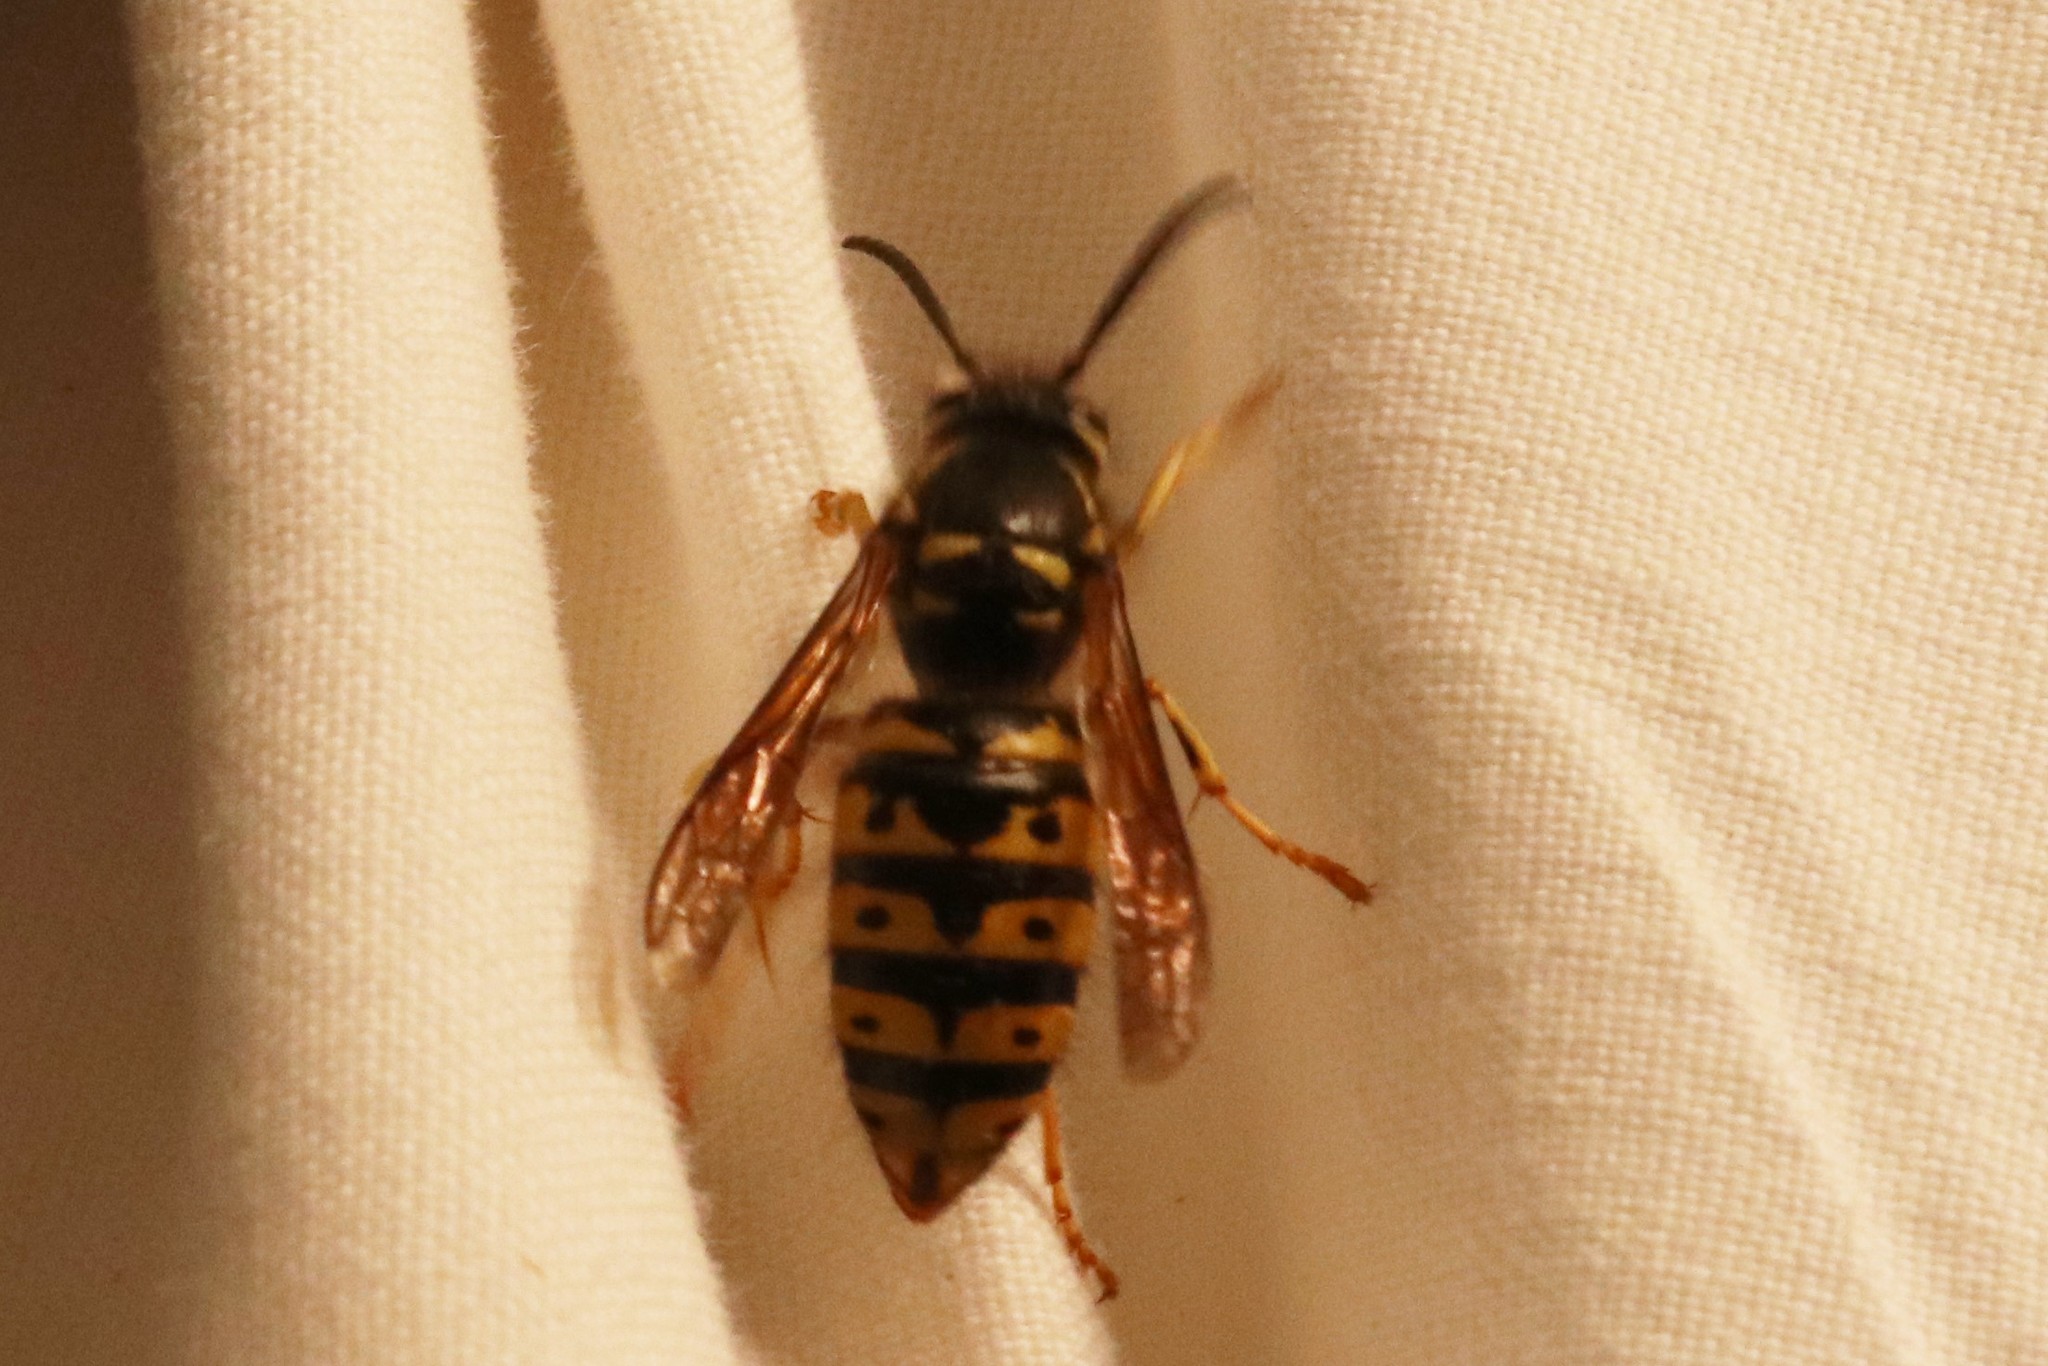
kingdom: Animalia
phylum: Arthropoda
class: Insecta
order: Hymenoptera
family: Vespidae
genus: Dolichovespula
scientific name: Dolichovespula arenaria
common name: Aerial yellowjacket
